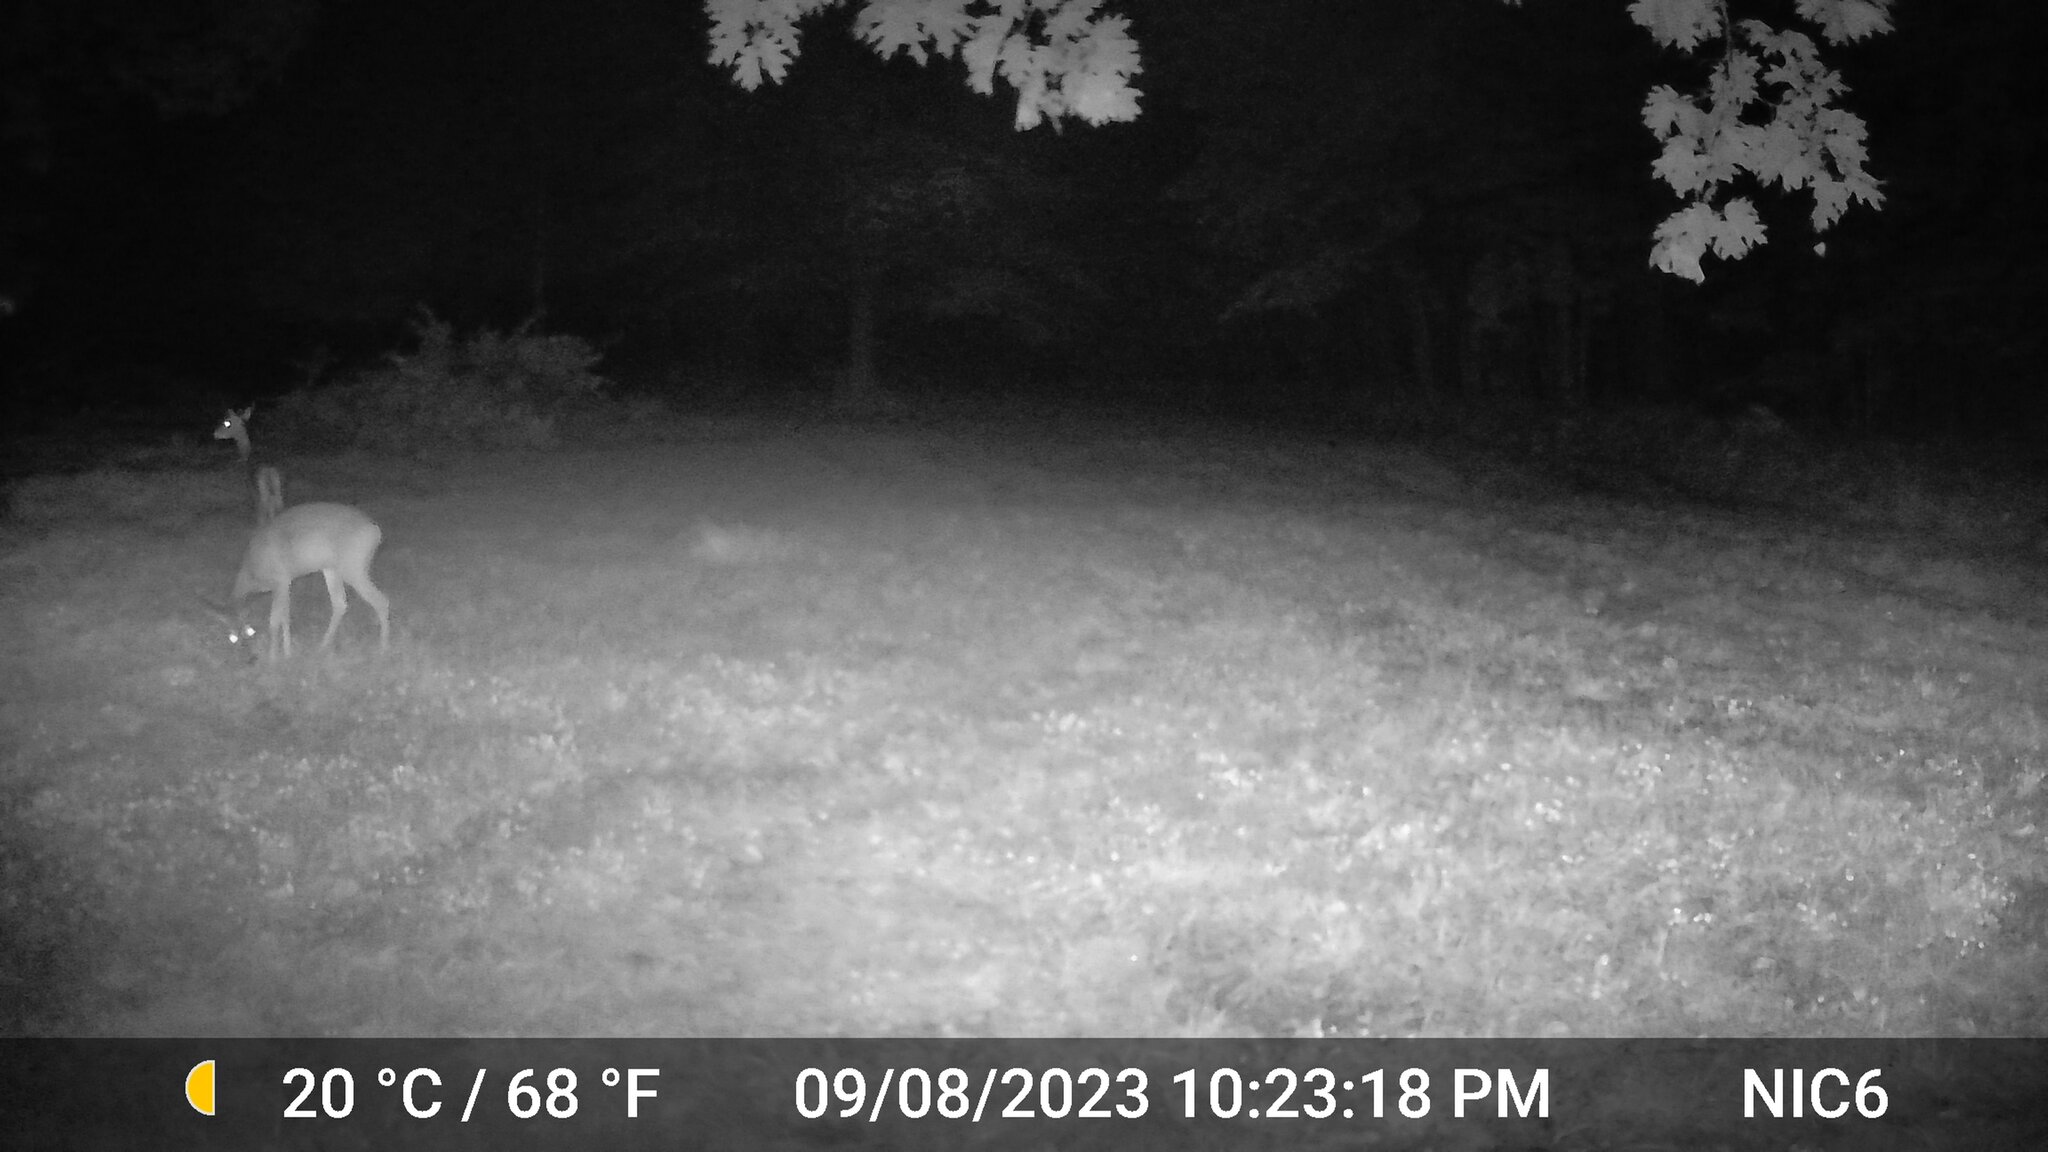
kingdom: Animalia
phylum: Chordata
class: Mammalia
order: Artiodactyla
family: Cervidae
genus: Odocoileus
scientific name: Odocoileus virginianus
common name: White-tailed deer
